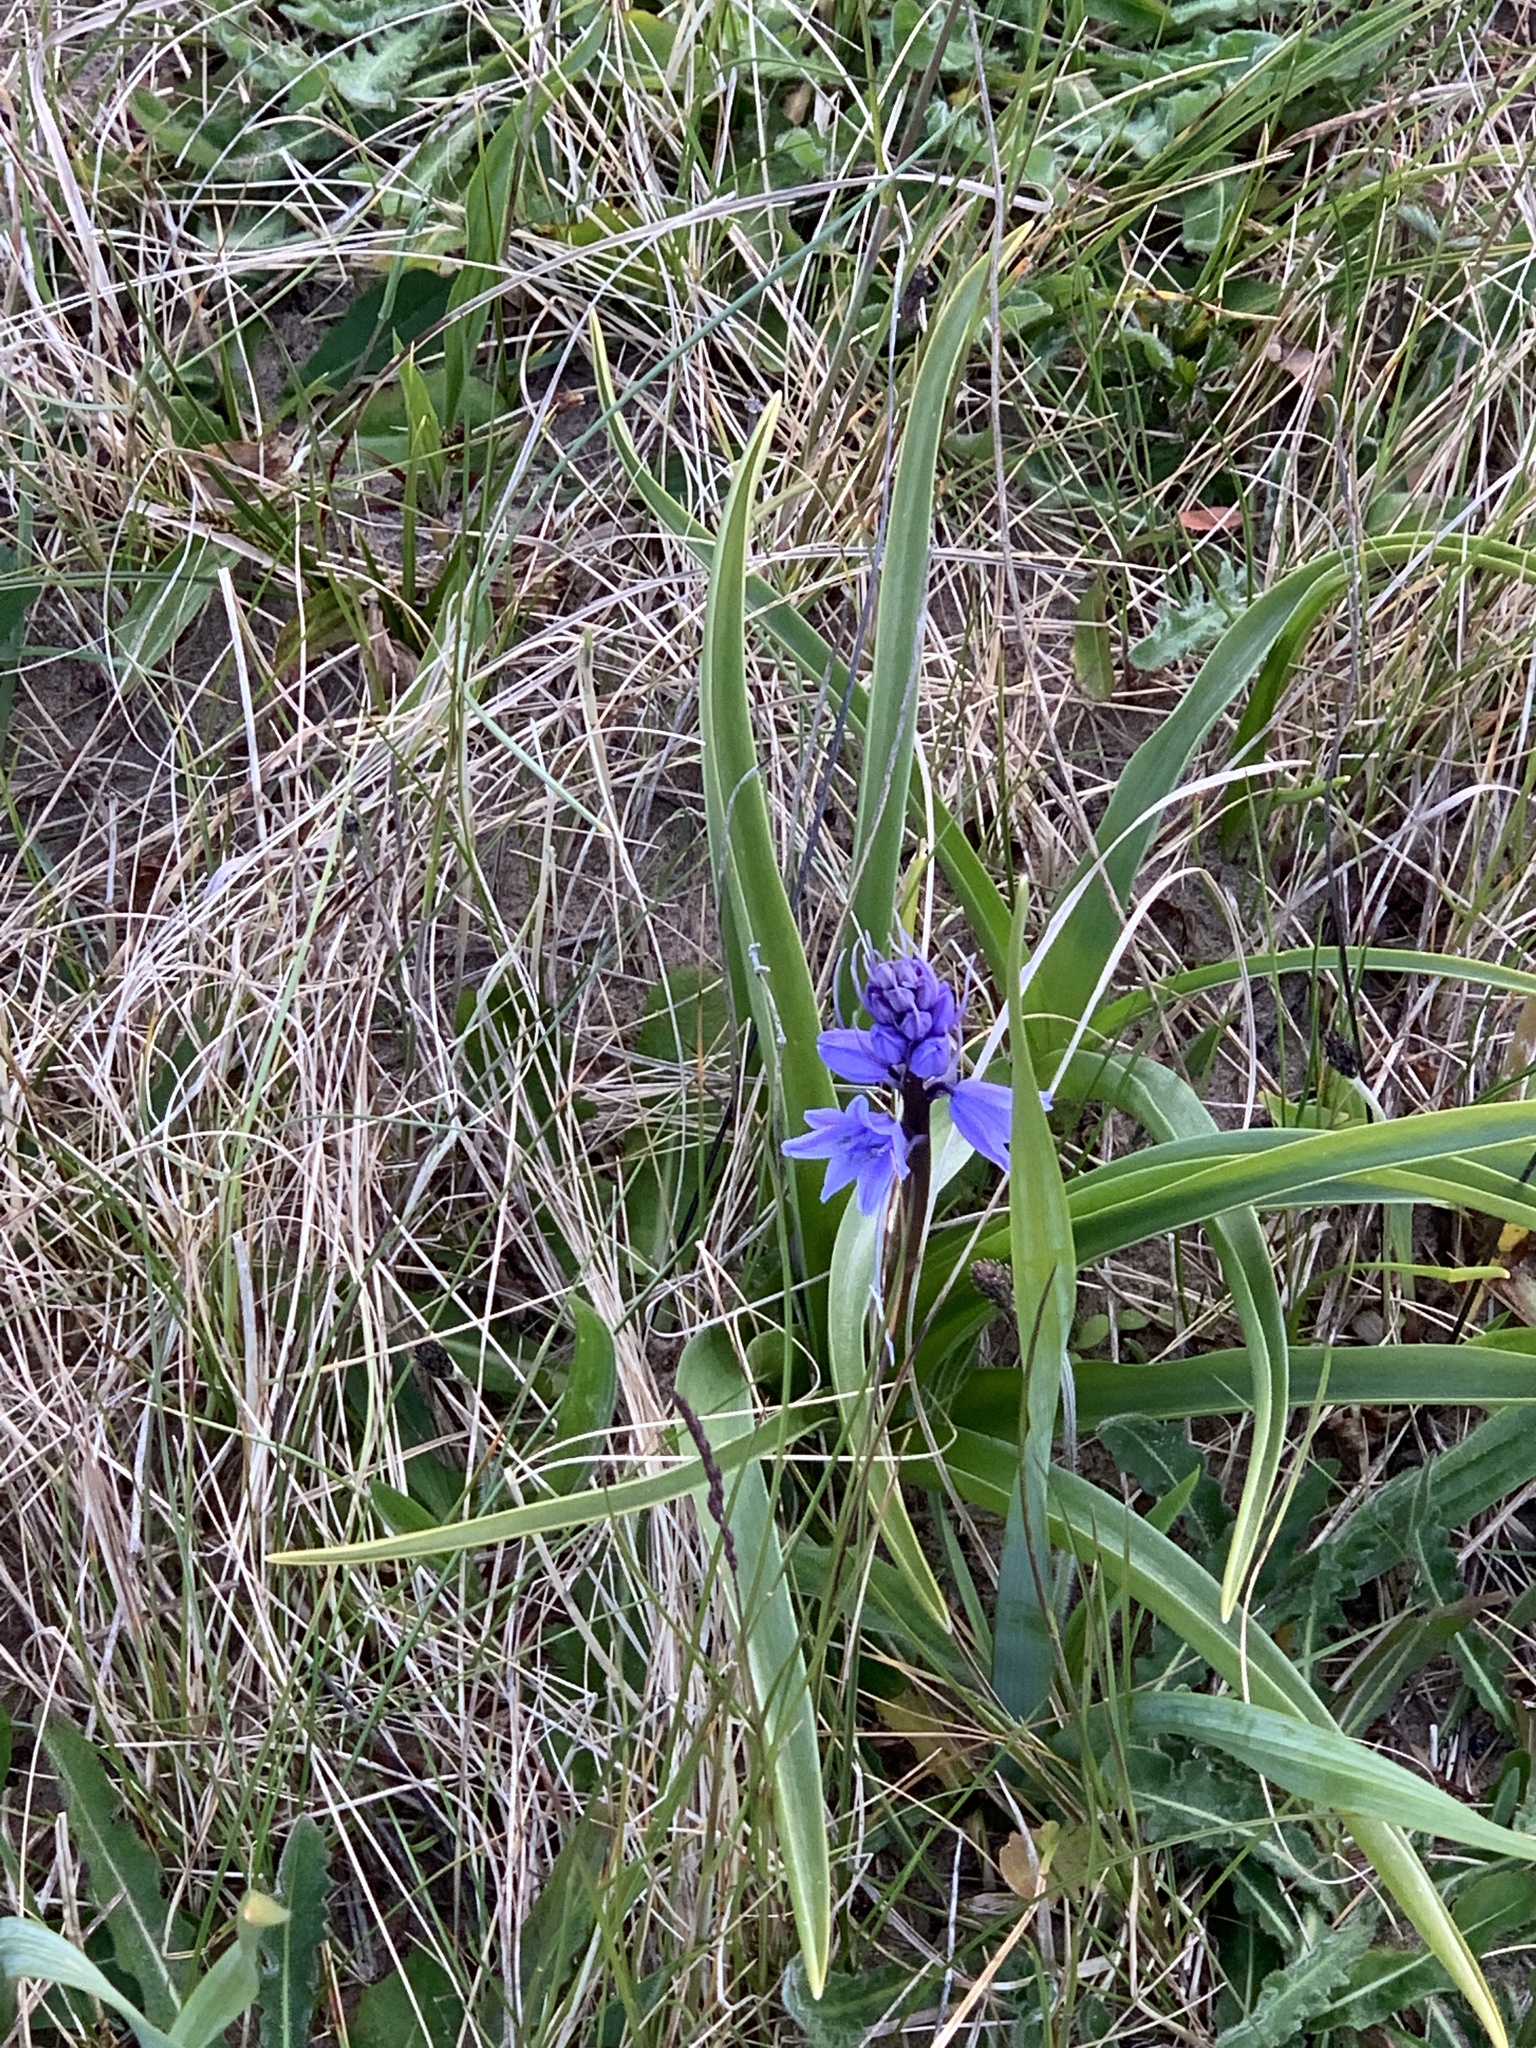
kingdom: Plantae
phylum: Tracheophyta
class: Liliopsida
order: Asparagales
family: Asparagaceae
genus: Hyacinthoides
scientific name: Hyacinthoides massartiana
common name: Hyacinthoides
